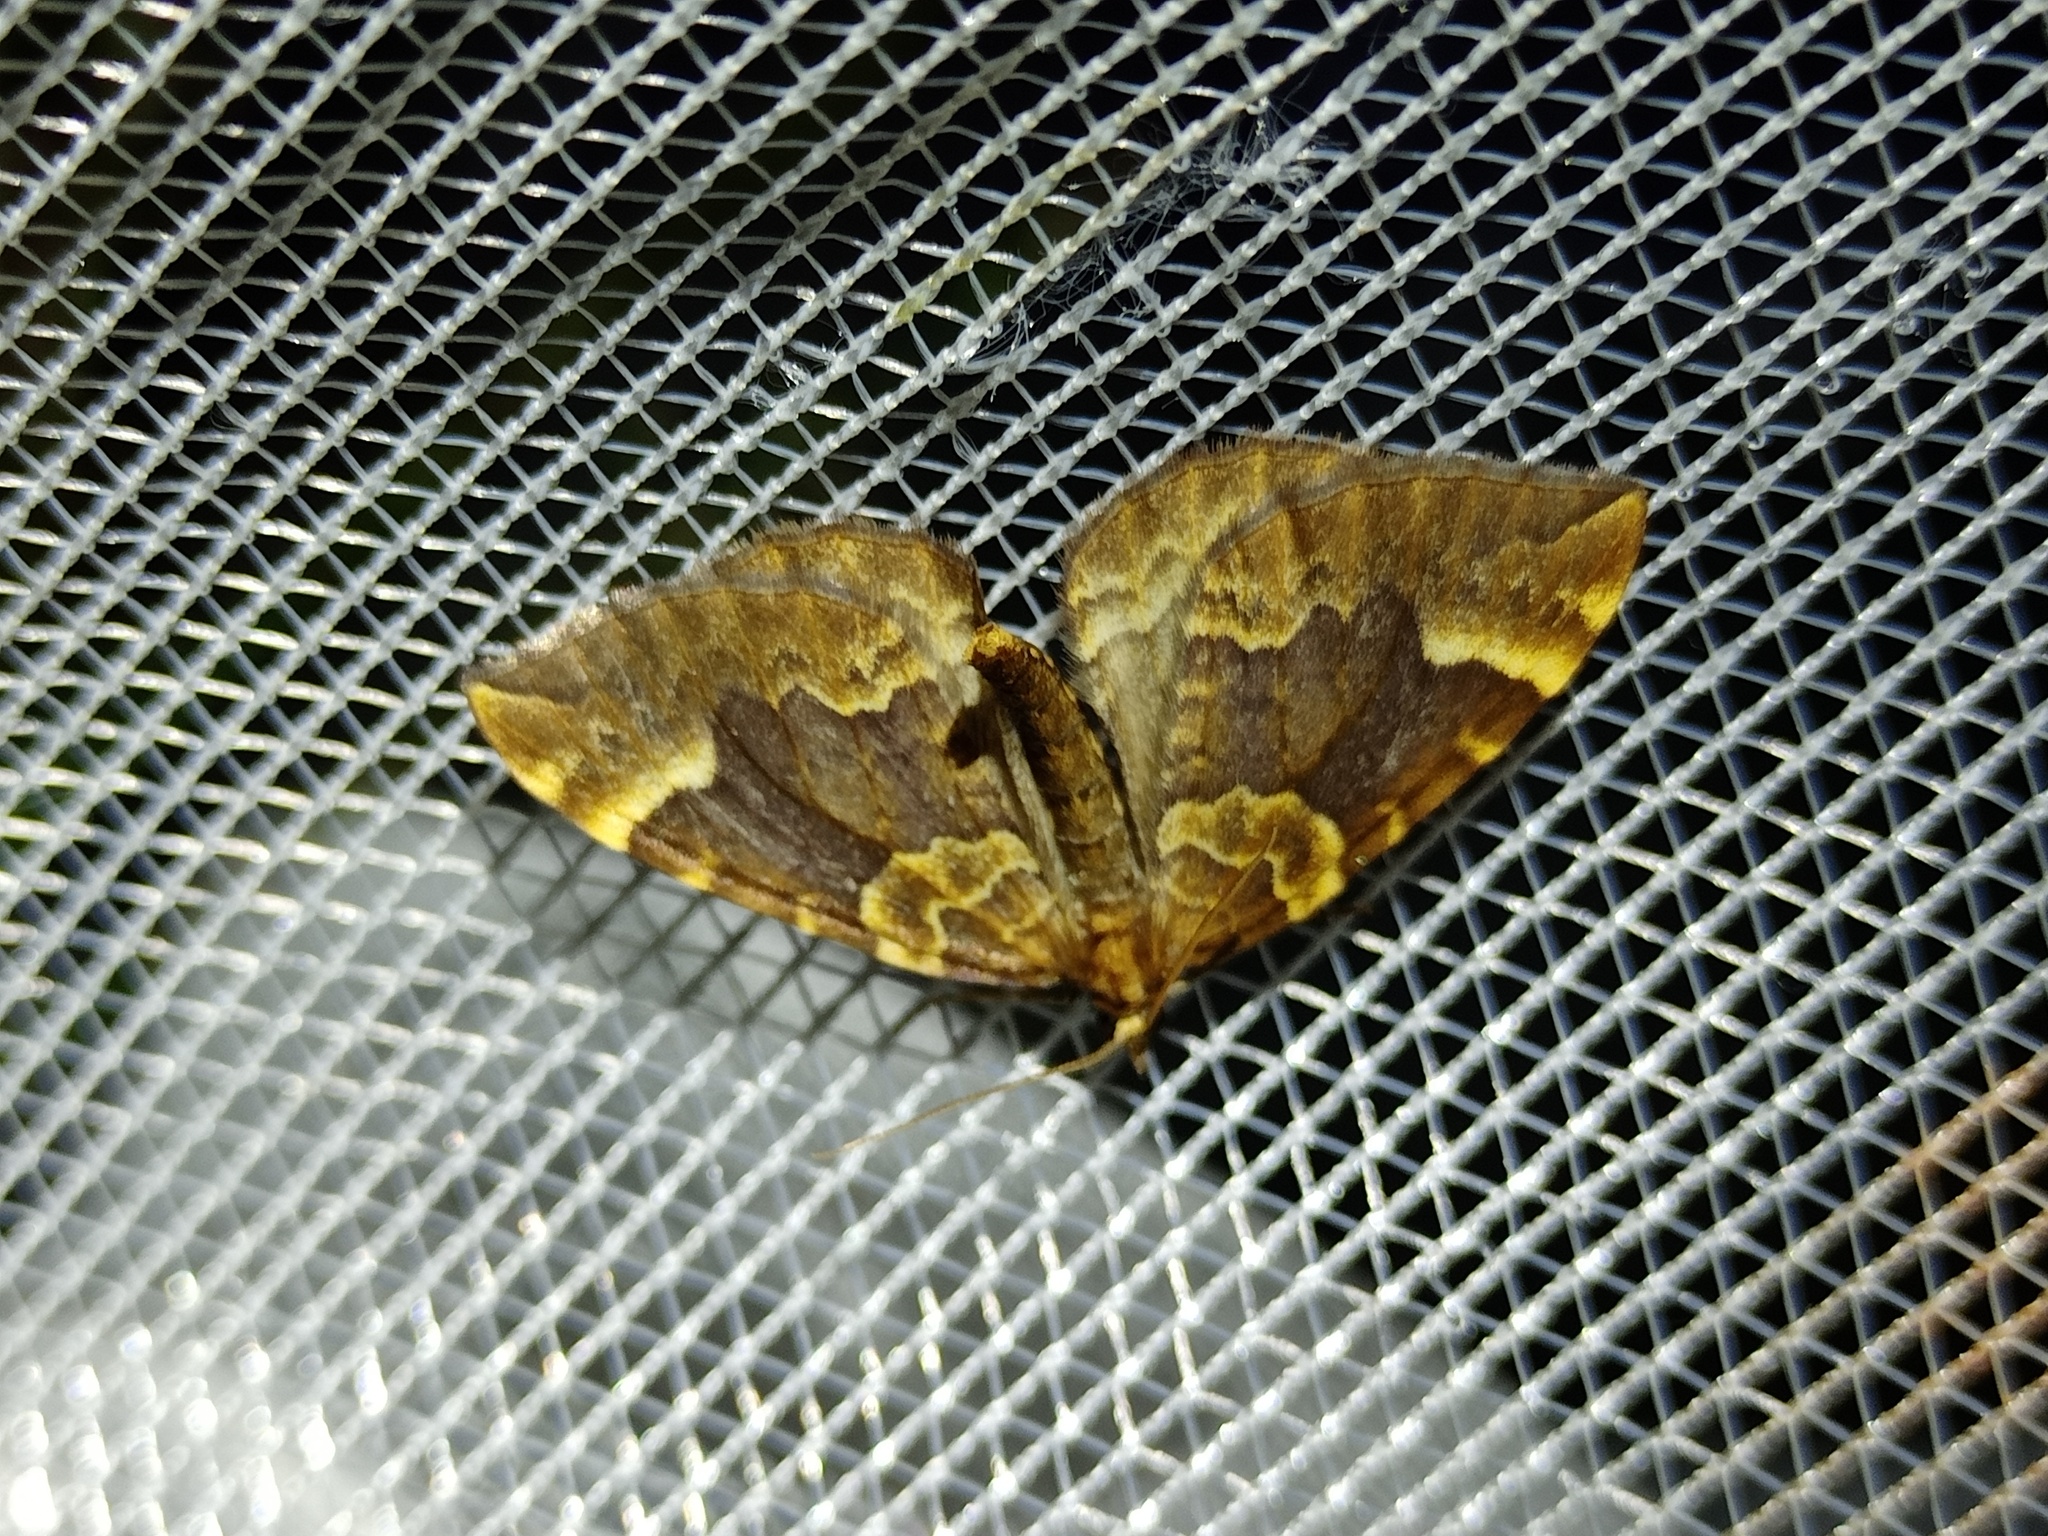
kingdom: Animalia
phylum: Arthropoda
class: Insecta
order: Lepidoptera
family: Geometridae
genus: Eulithis
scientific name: Eulithis populata
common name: Northern spinach
